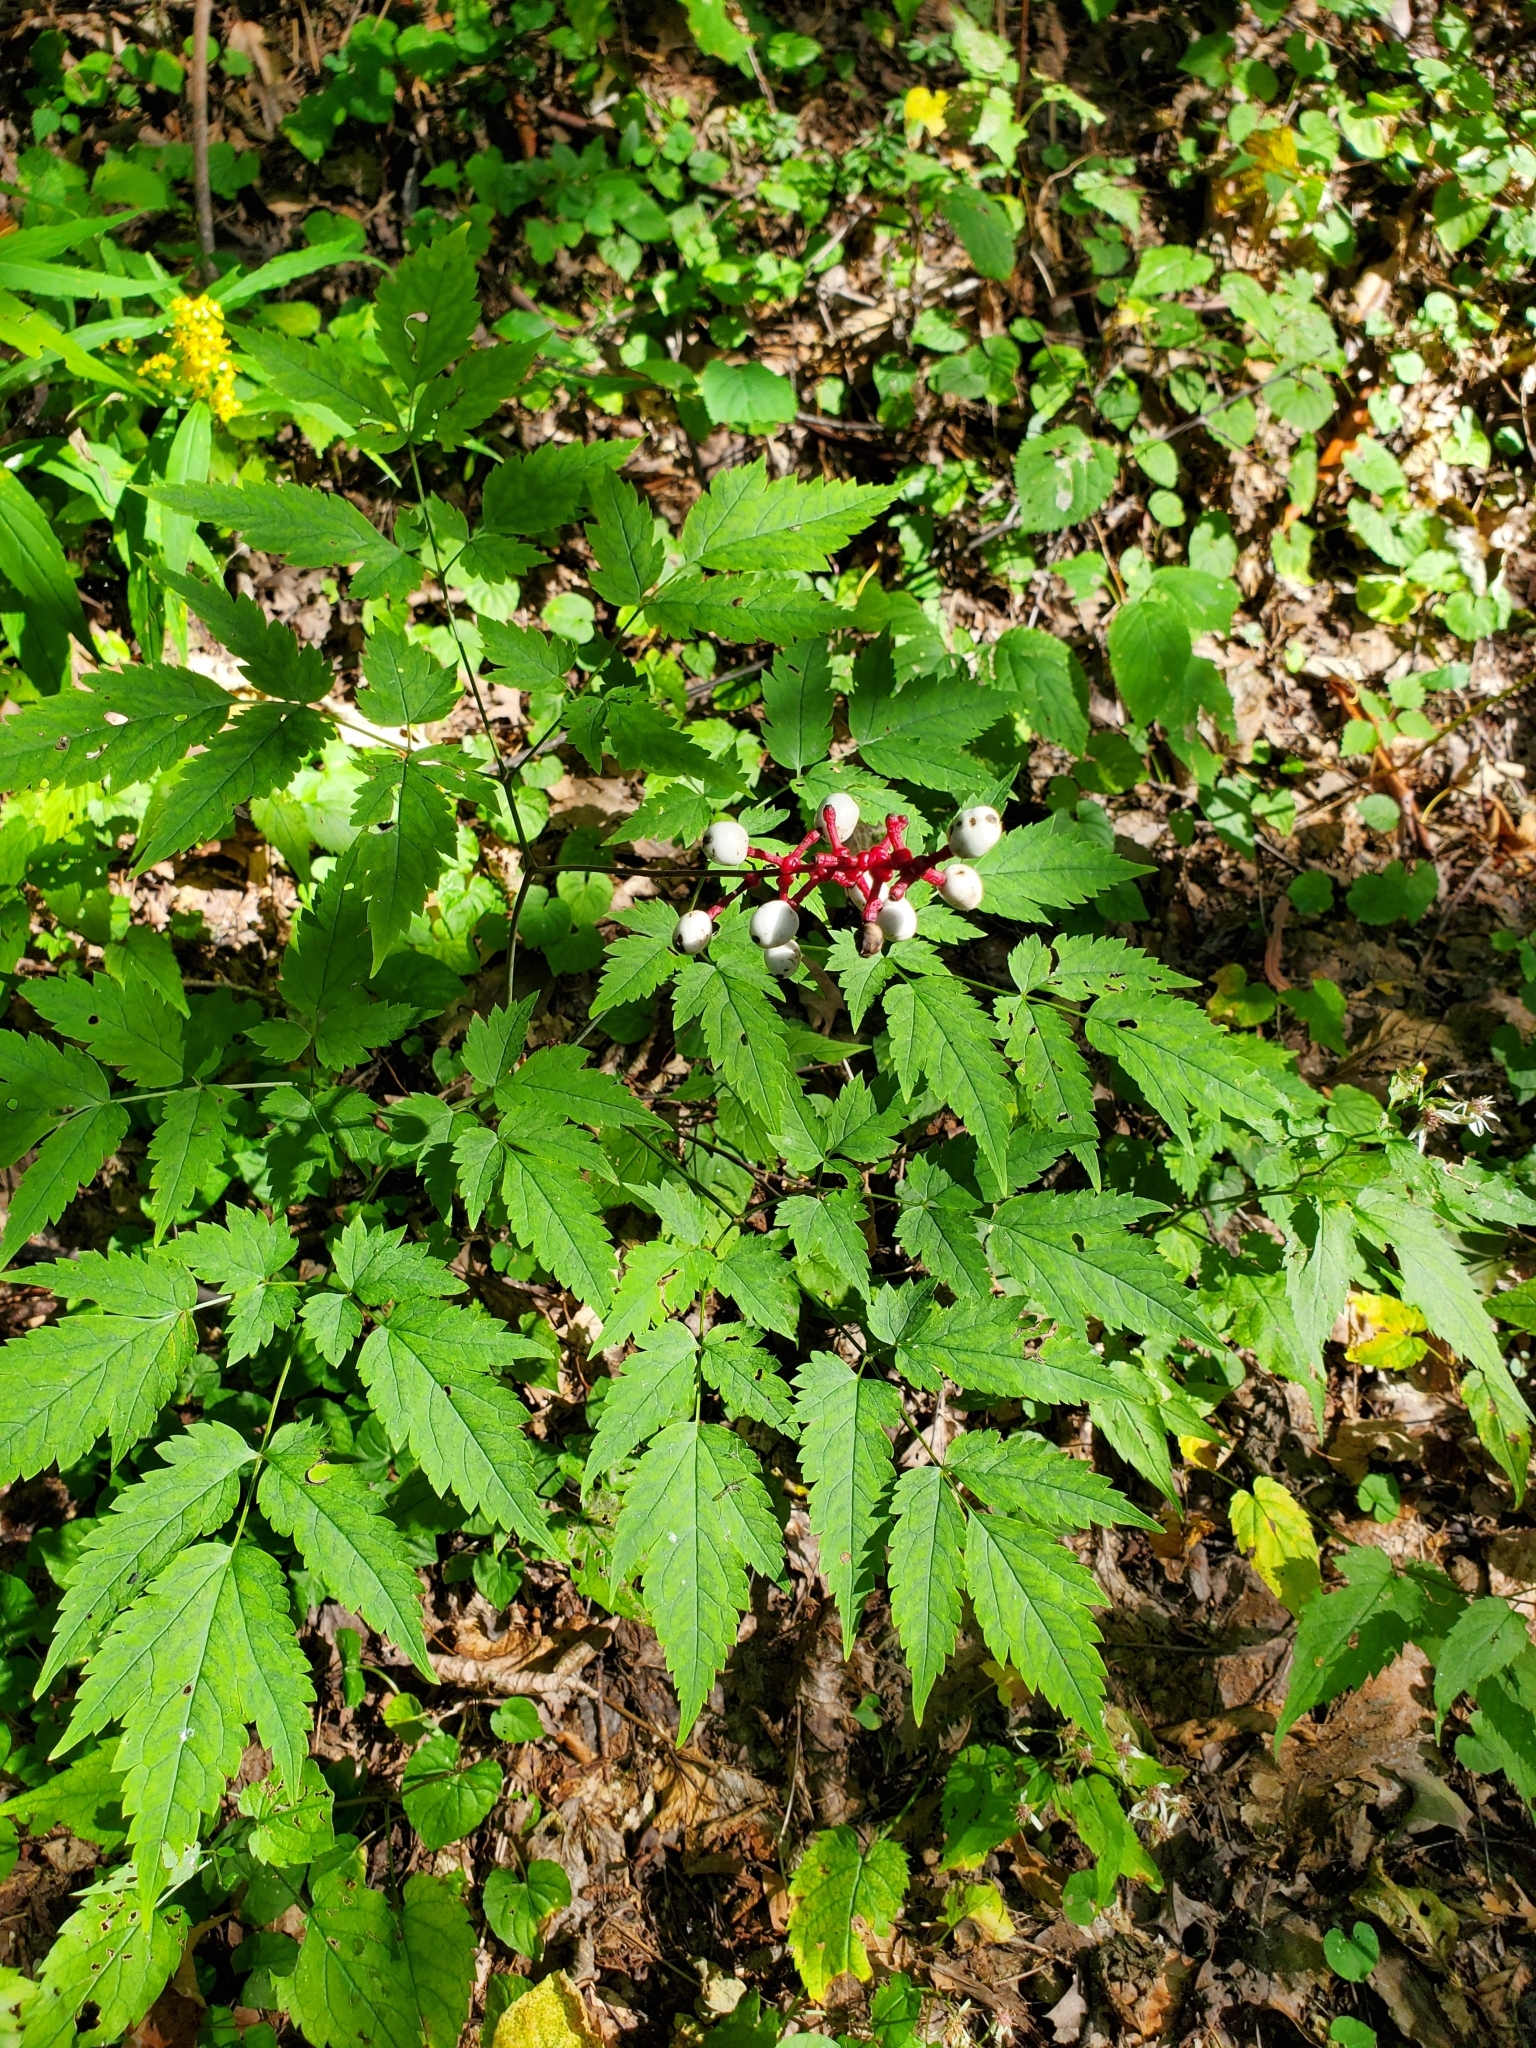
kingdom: Plantae
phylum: Tracheophyta
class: Magnoliopsida
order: Ranunculales
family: Ranunculaceae
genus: Actaea
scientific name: Actaea pachypoda
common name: Doll's-eyes
